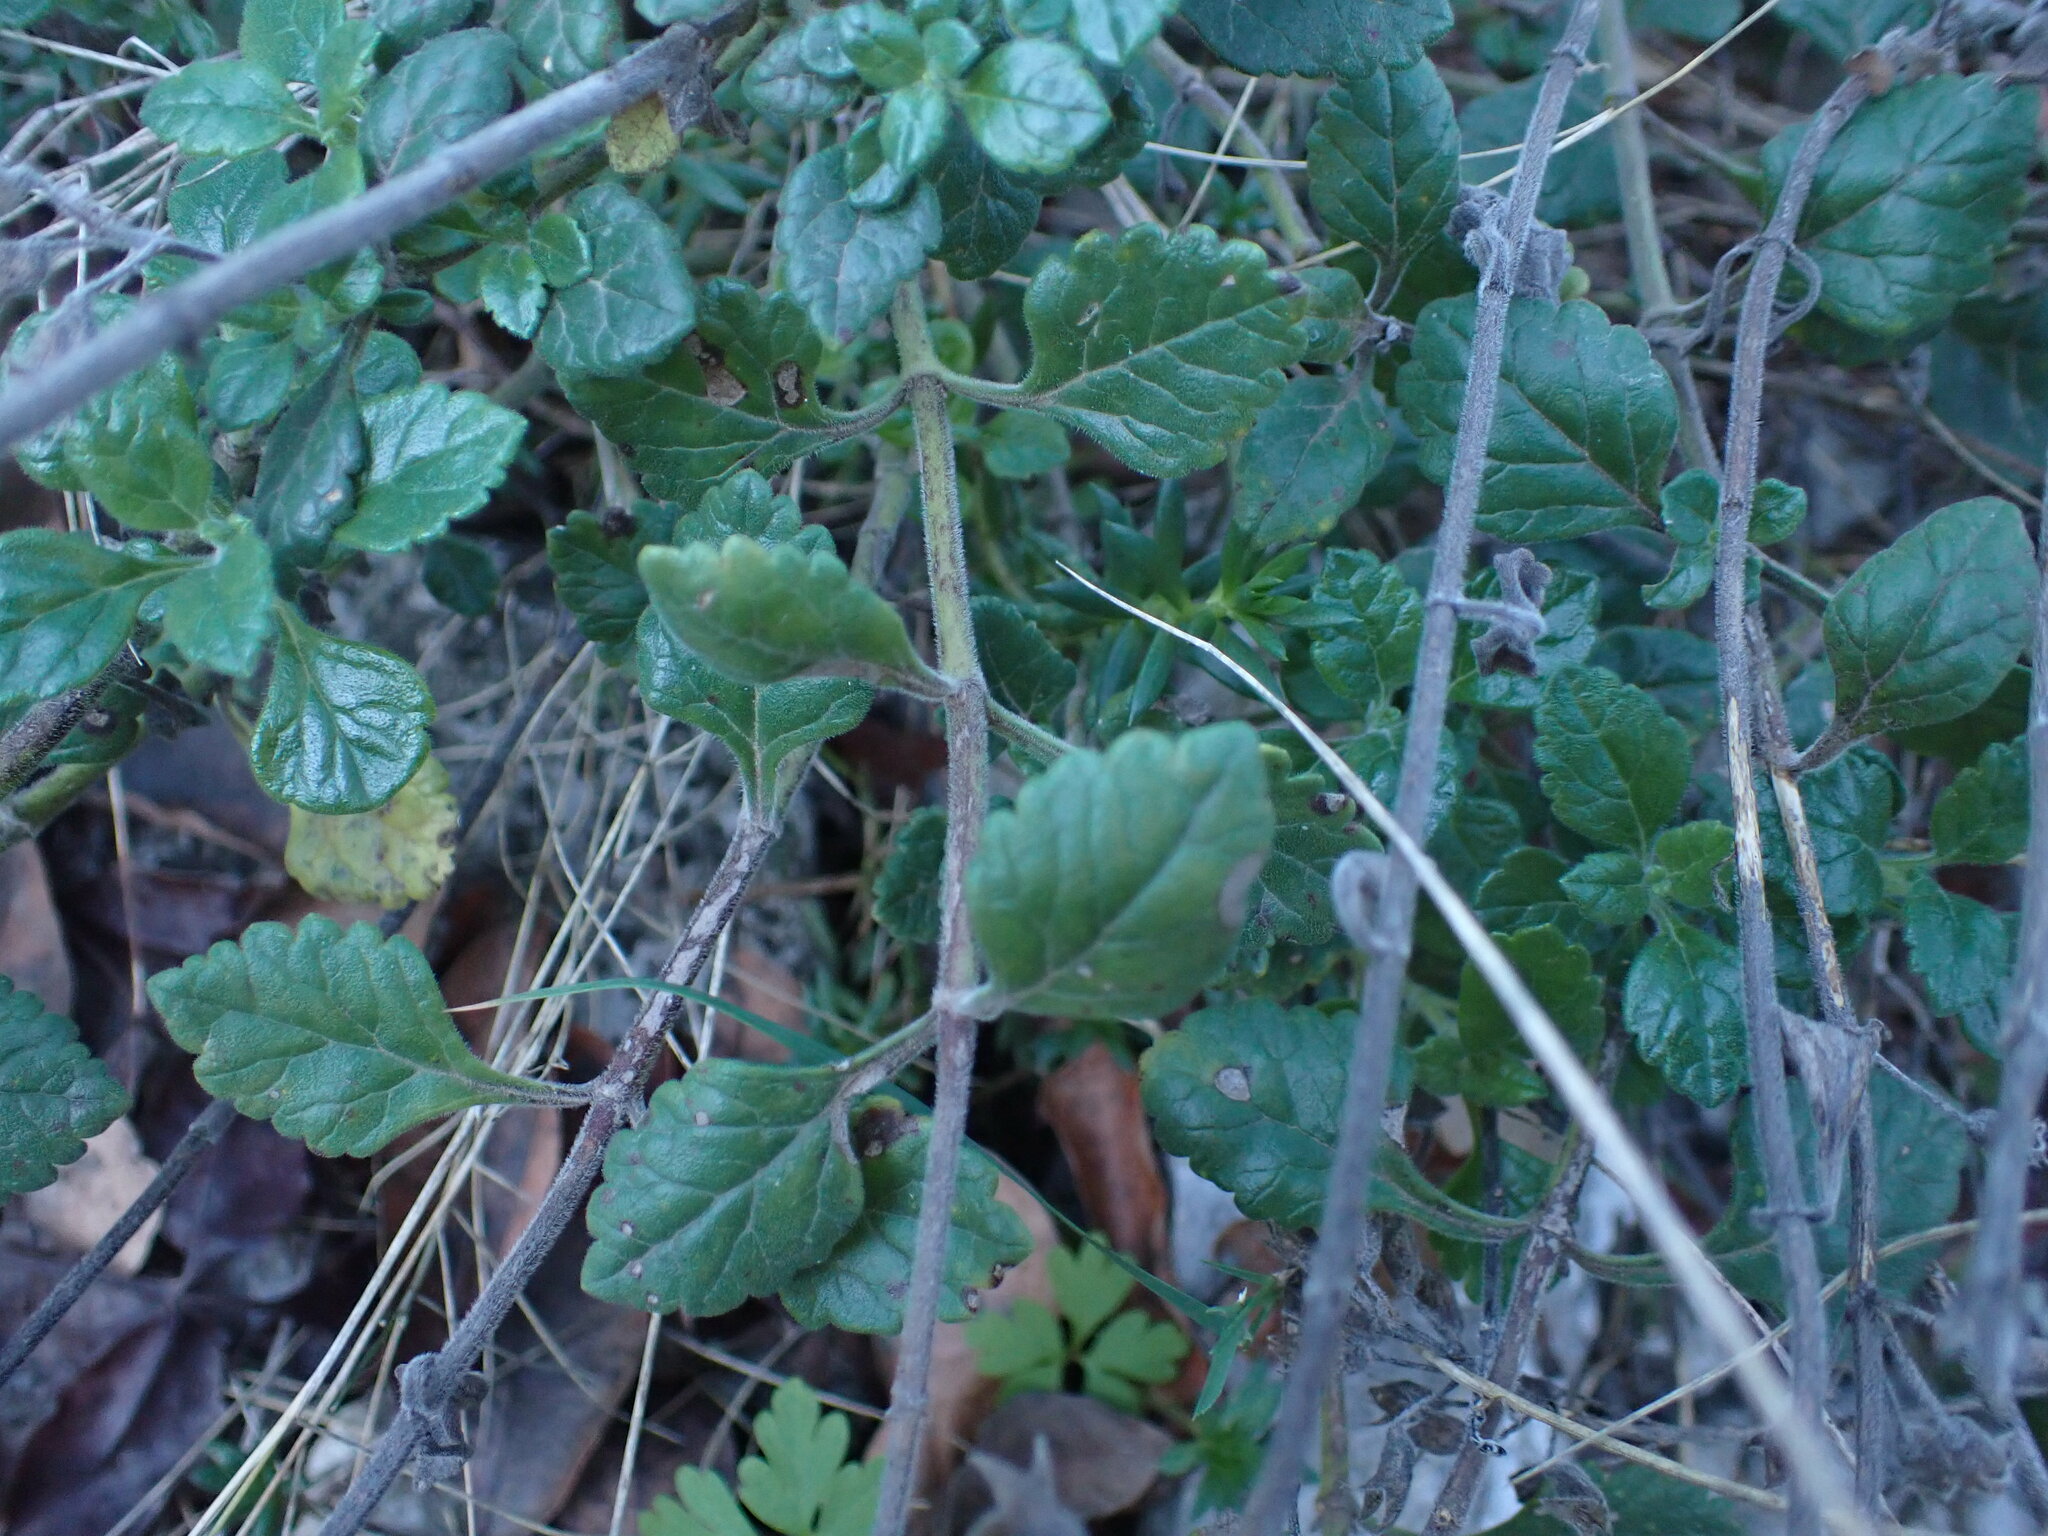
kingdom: Plantae
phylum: Tracheophyta
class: Magnoliopsida
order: Lamiales
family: Lamiaceae
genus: Teucrium
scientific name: Teucrium flavum
